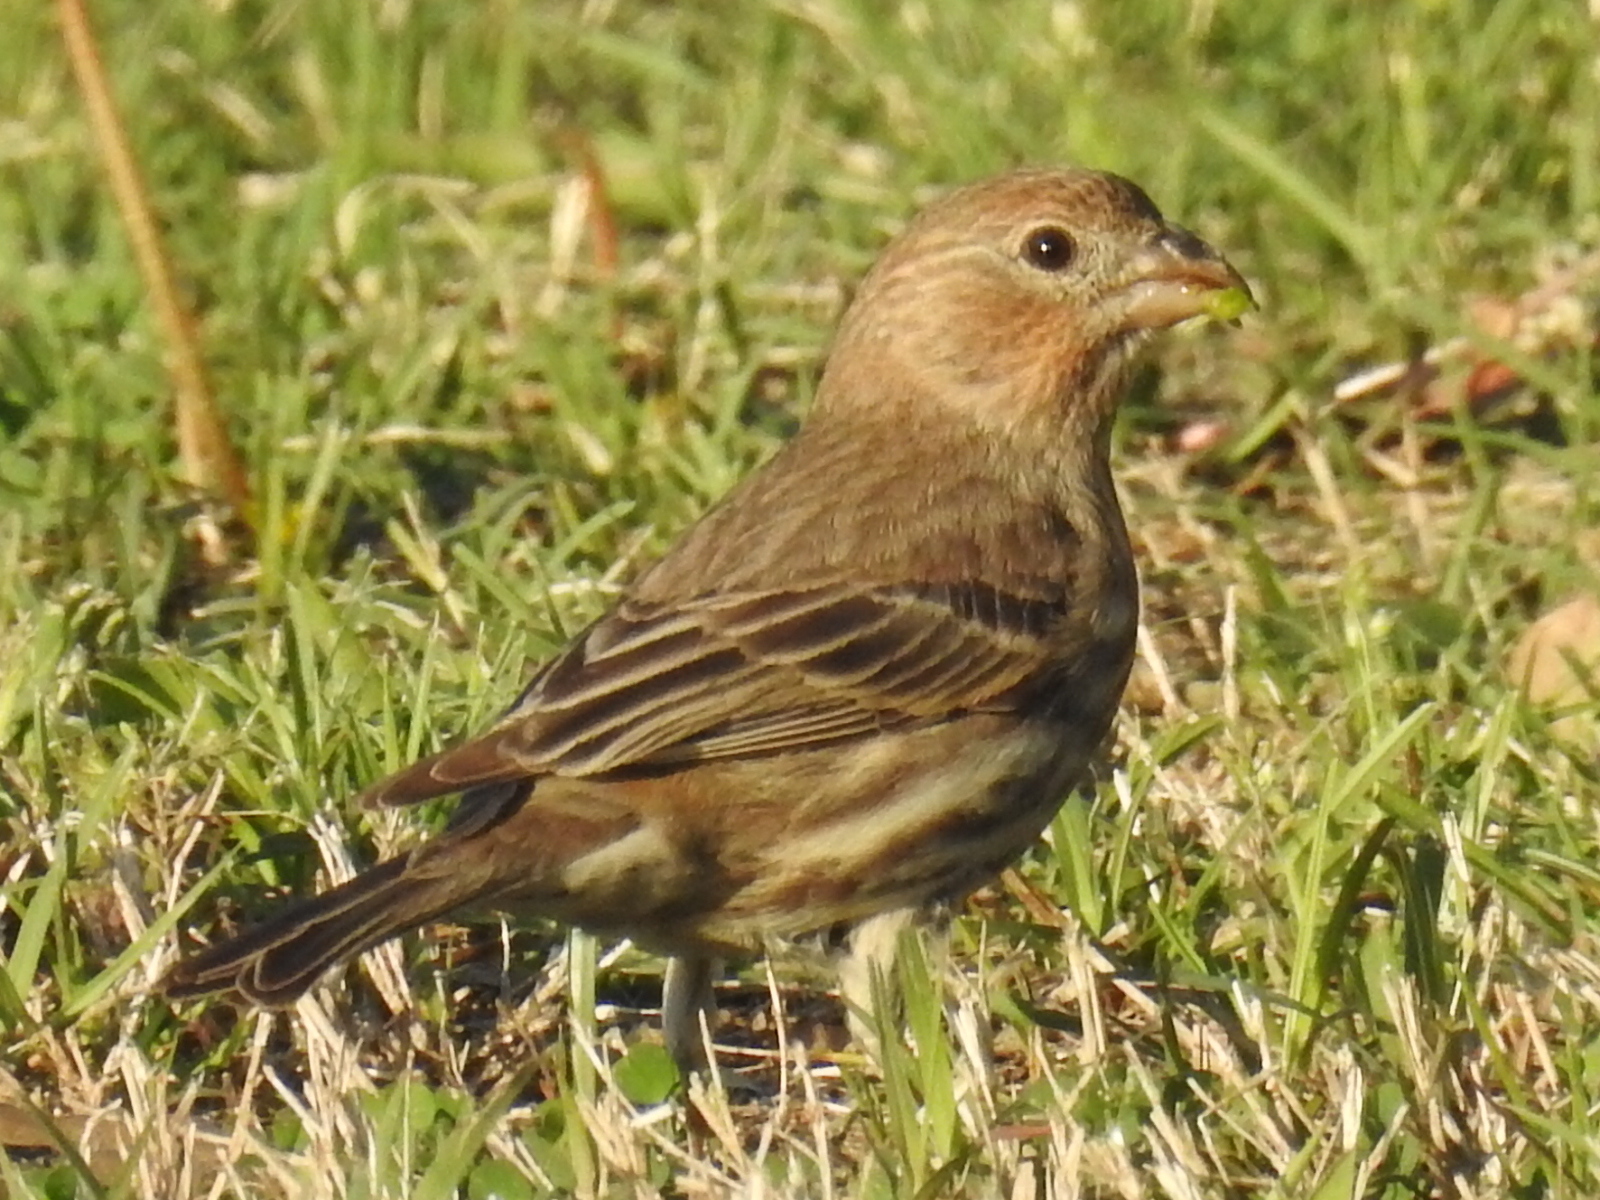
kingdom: Animalia
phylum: Chordata
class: Aves
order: Passeriformes
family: Fringillidae
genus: Haemorhous
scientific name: Haemorhous mexicanus
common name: House finch
